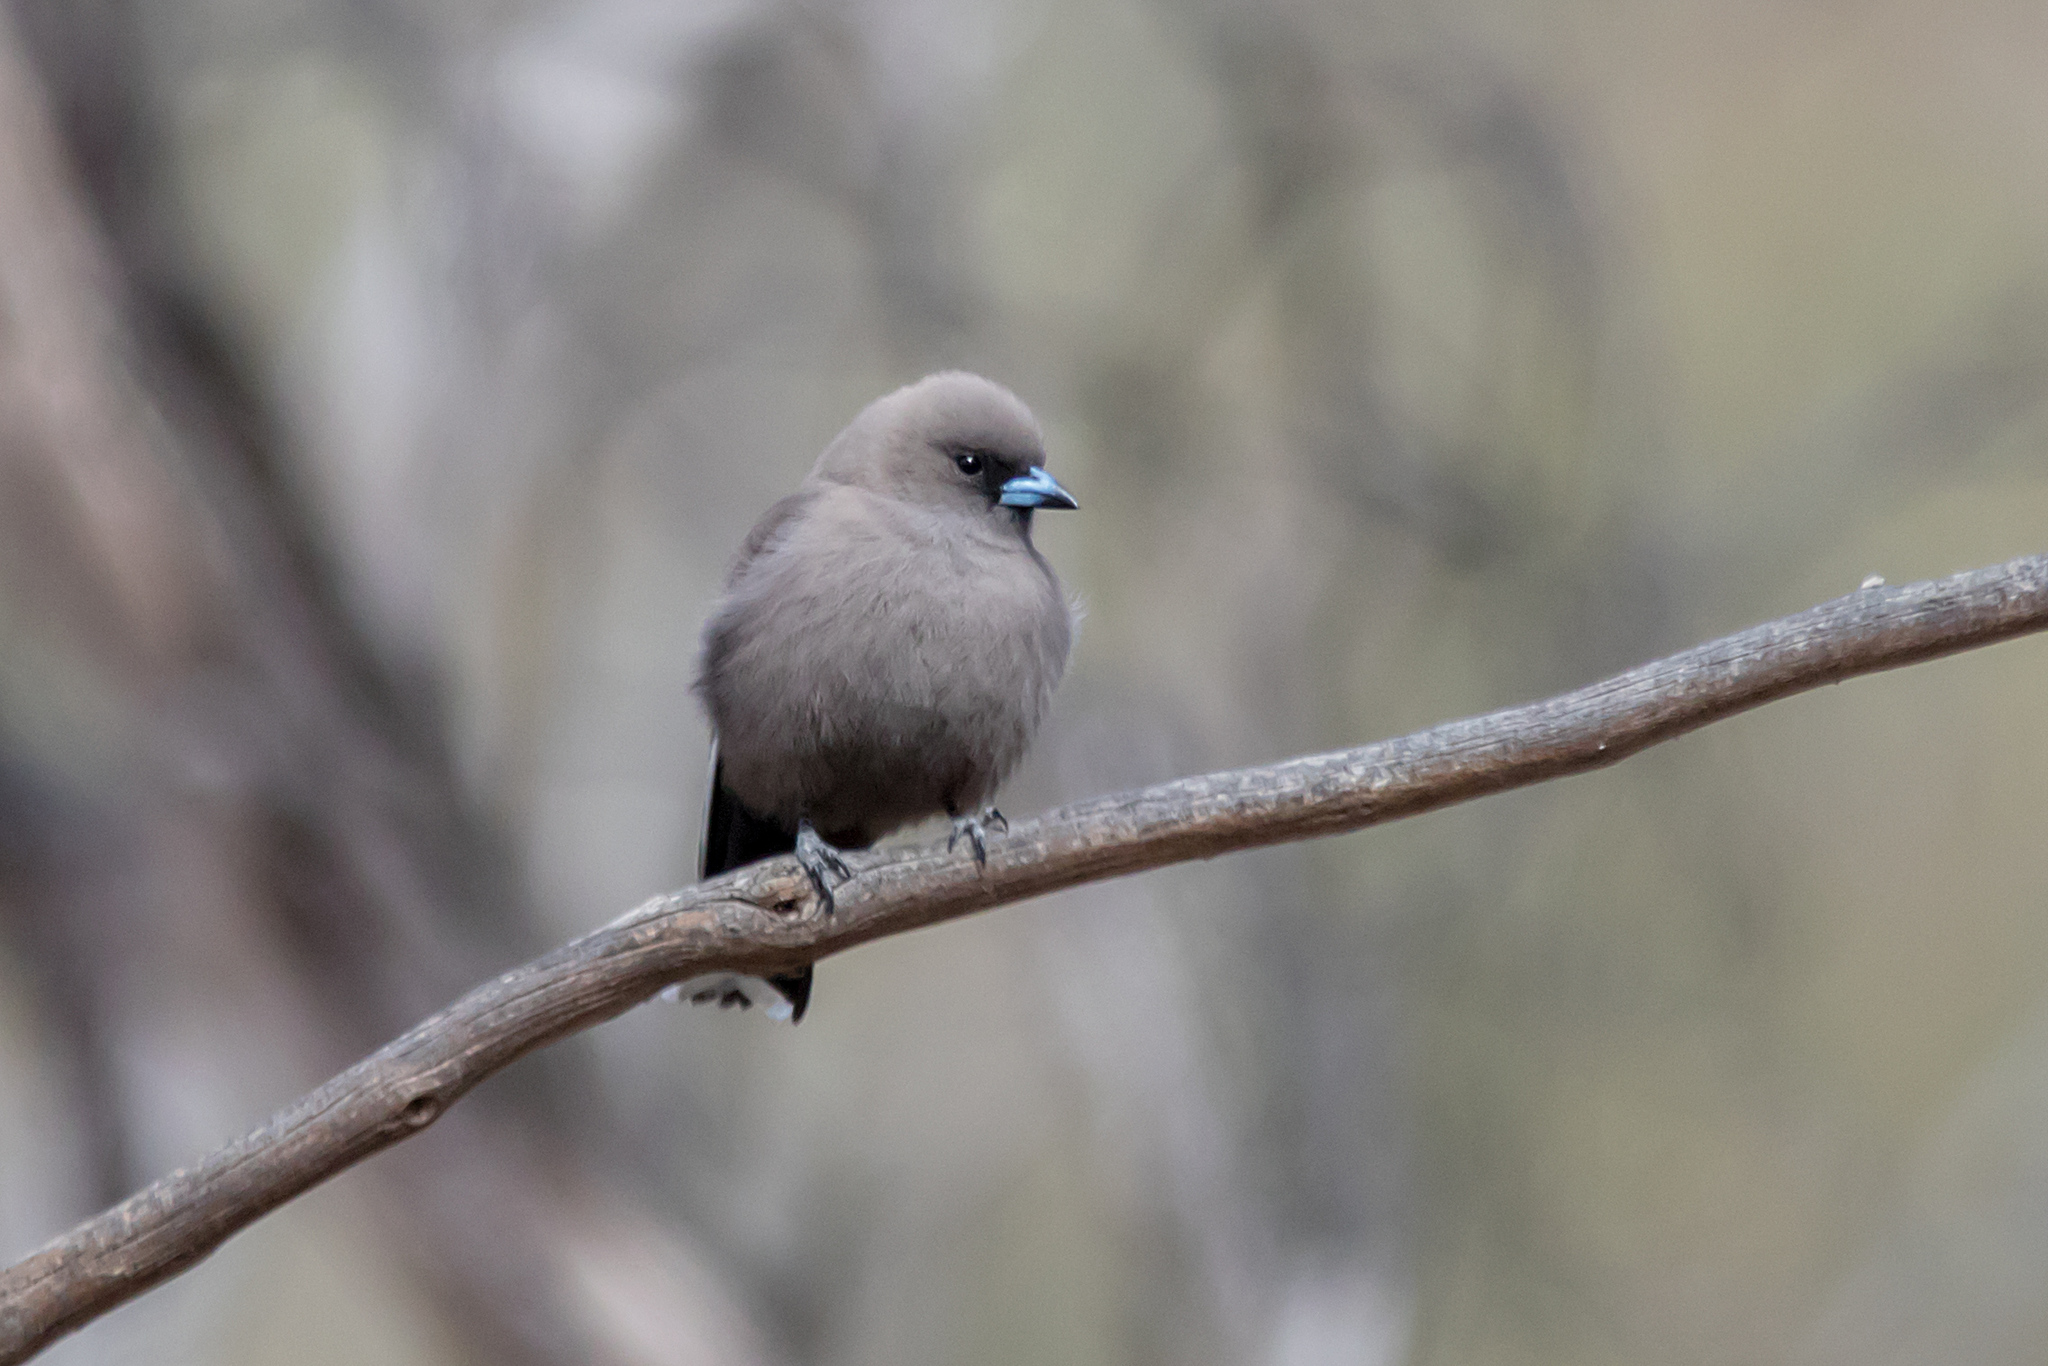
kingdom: Animalia
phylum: Chordata
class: Aves
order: Passeriformes
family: Artamidae
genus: Artamus
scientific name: Artamus cyanopterus
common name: Dusky woodswallow
